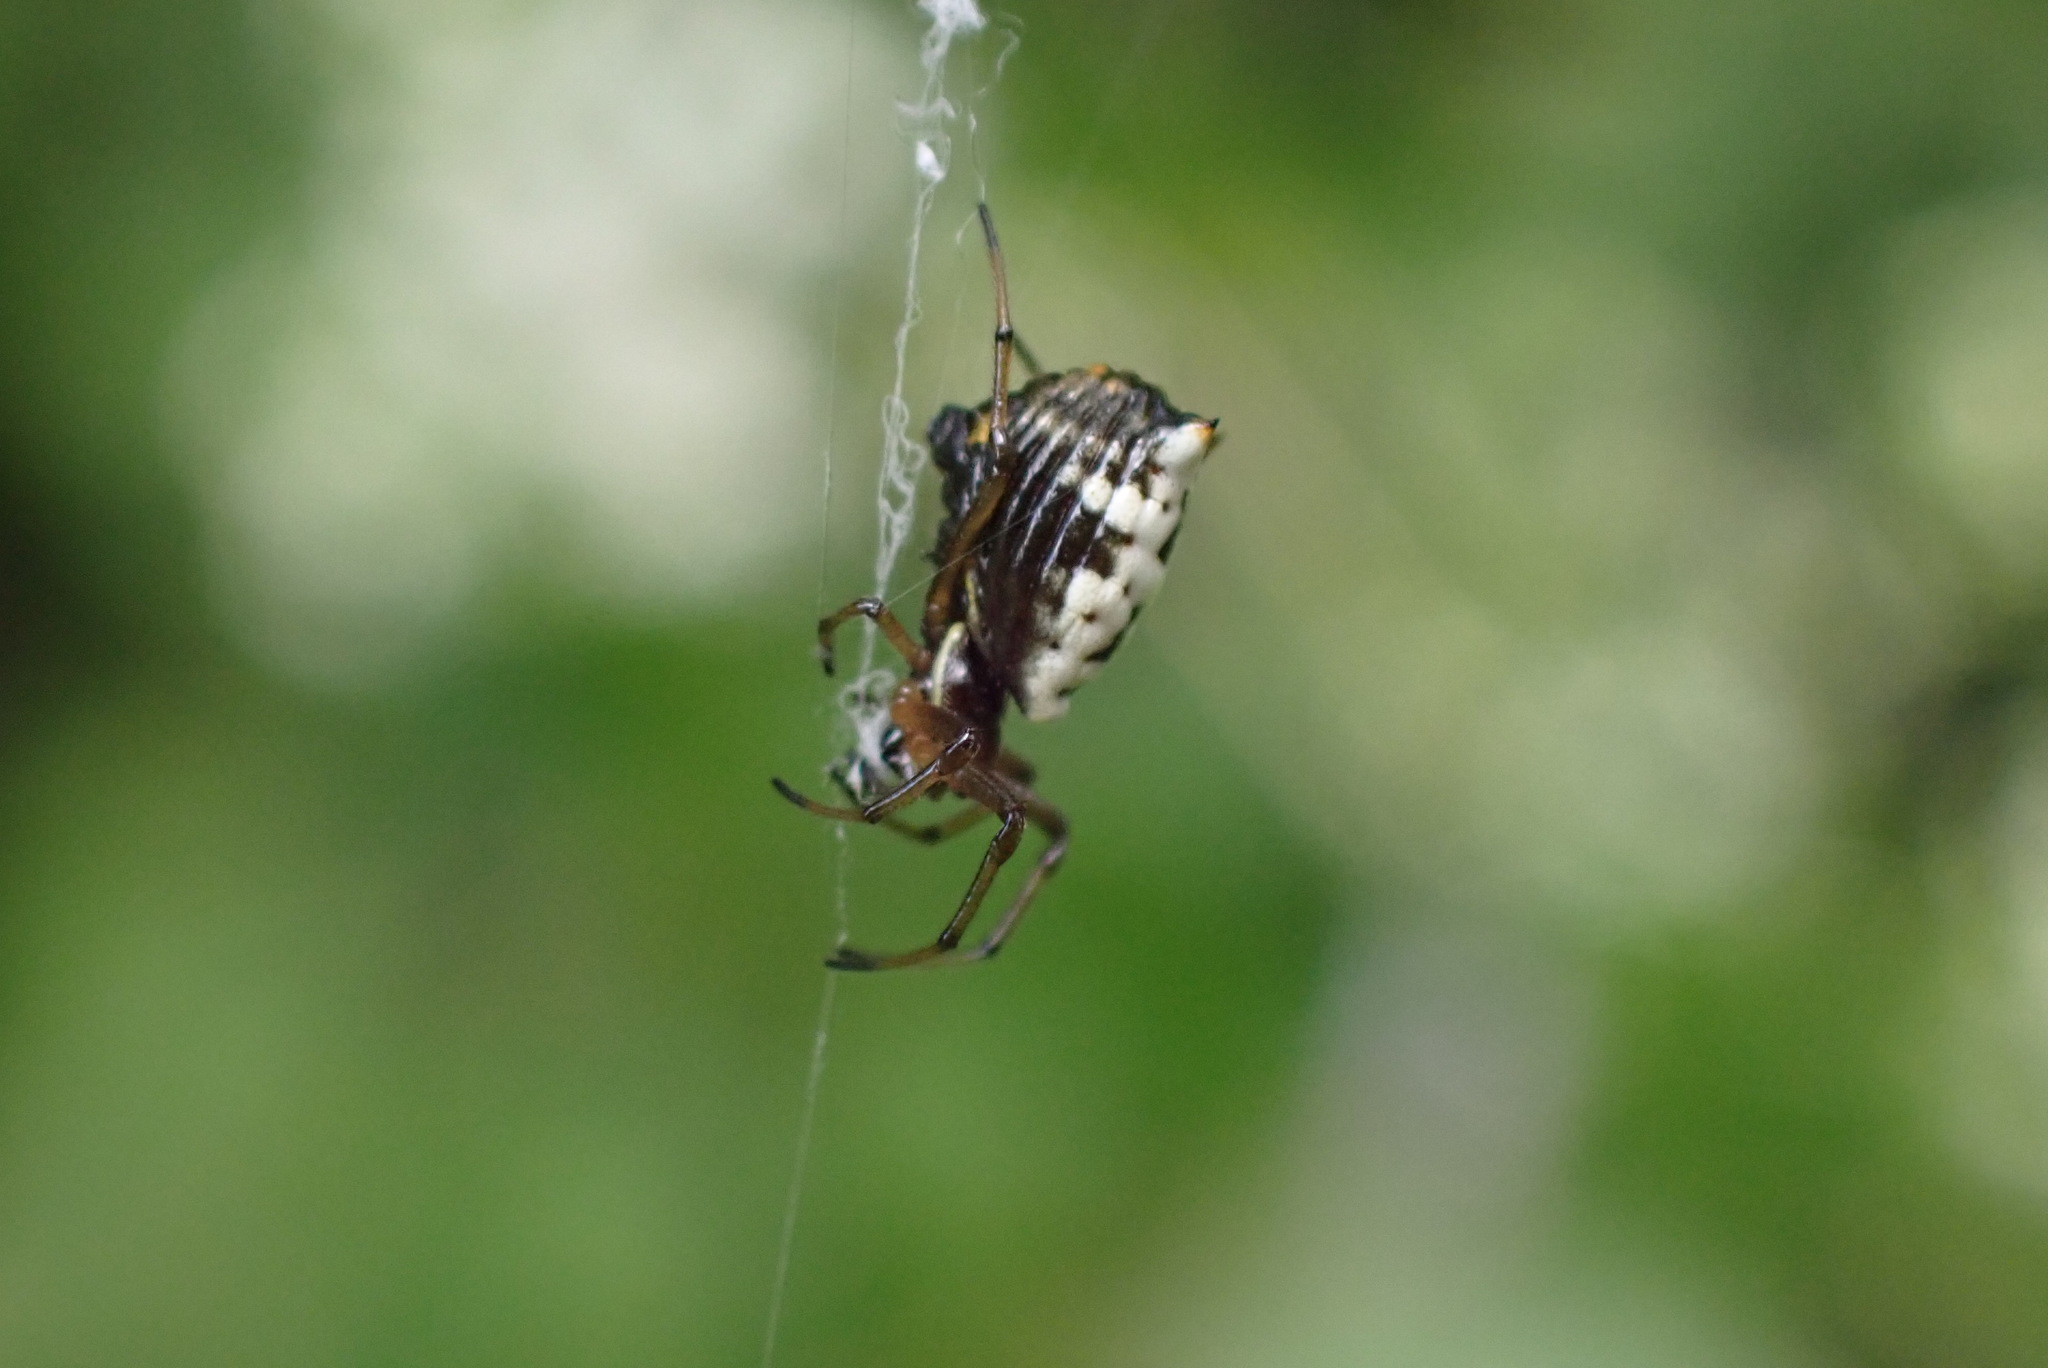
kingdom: Animalia
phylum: Arthropoda
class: Arachnida
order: Araneae
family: Araneidae
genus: Micrathena
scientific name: Micrathena mitrata
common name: Orb weavers
